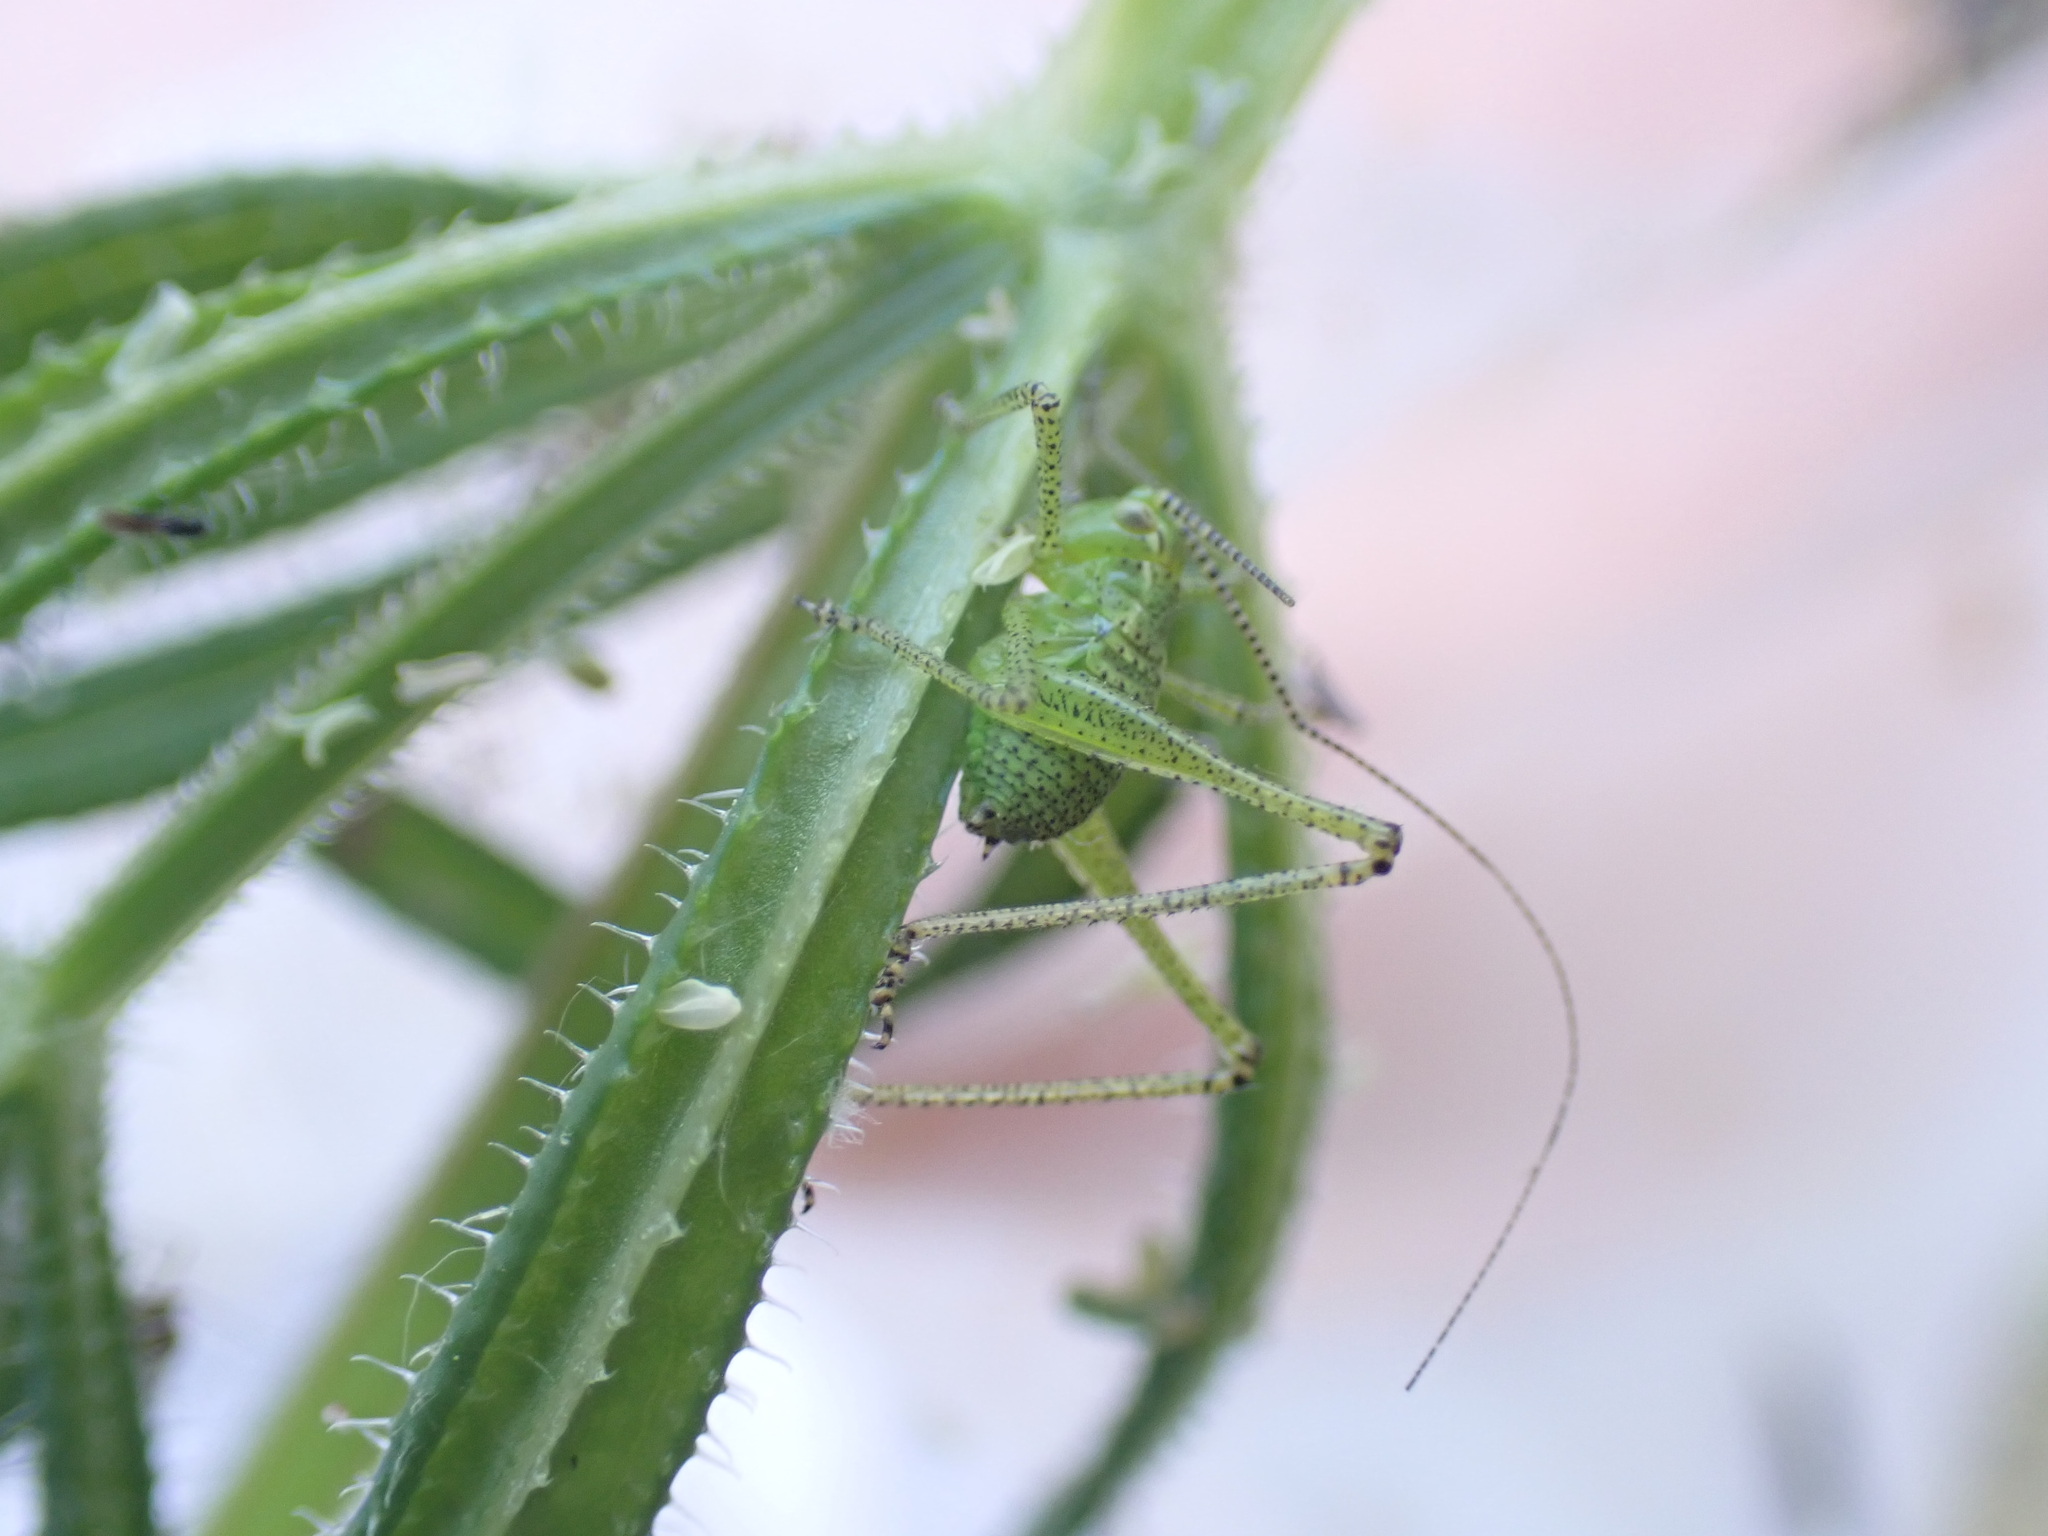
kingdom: Animalia
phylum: Arthropoda
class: Insecta
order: Orthoptera
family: Tettigoniidae
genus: Leptophyes
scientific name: Leptophyes punctatissima
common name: Speckled bush-cricket
